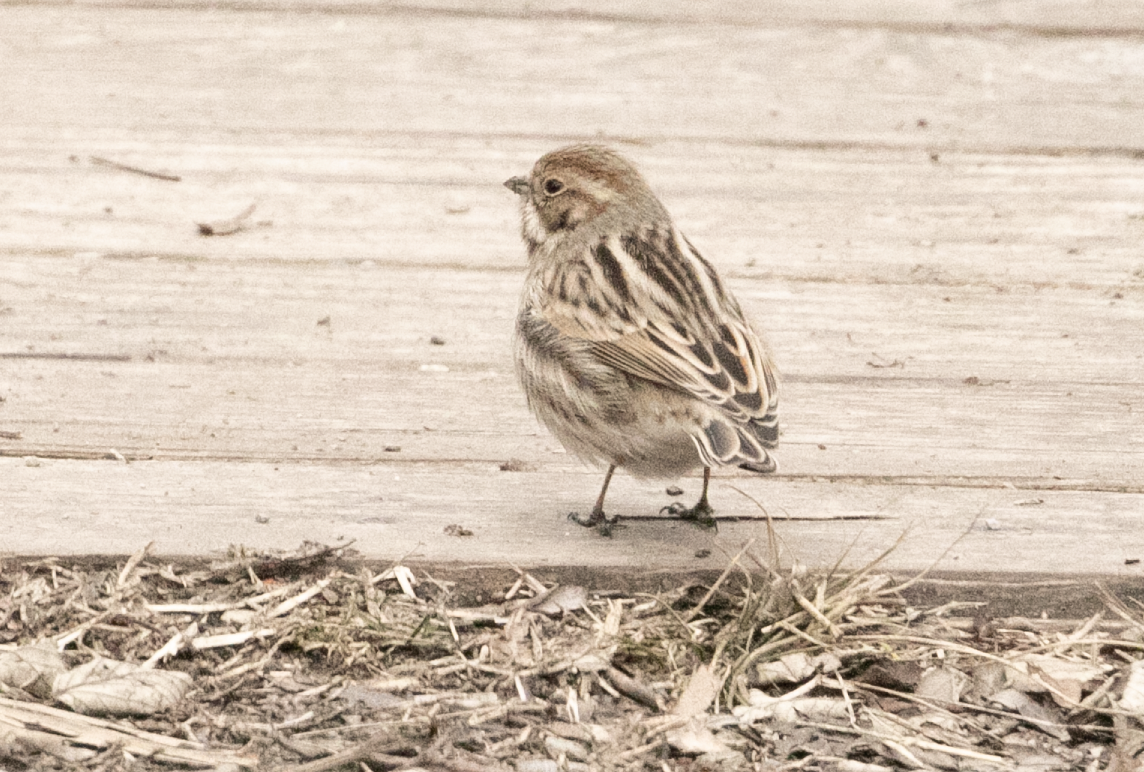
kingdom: Animalia
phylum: Chordata
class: Aves
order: Passeriformes
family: Emberizidae
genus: Emberiza
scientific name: Emberiza schoeniclus
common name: Reed bunting
